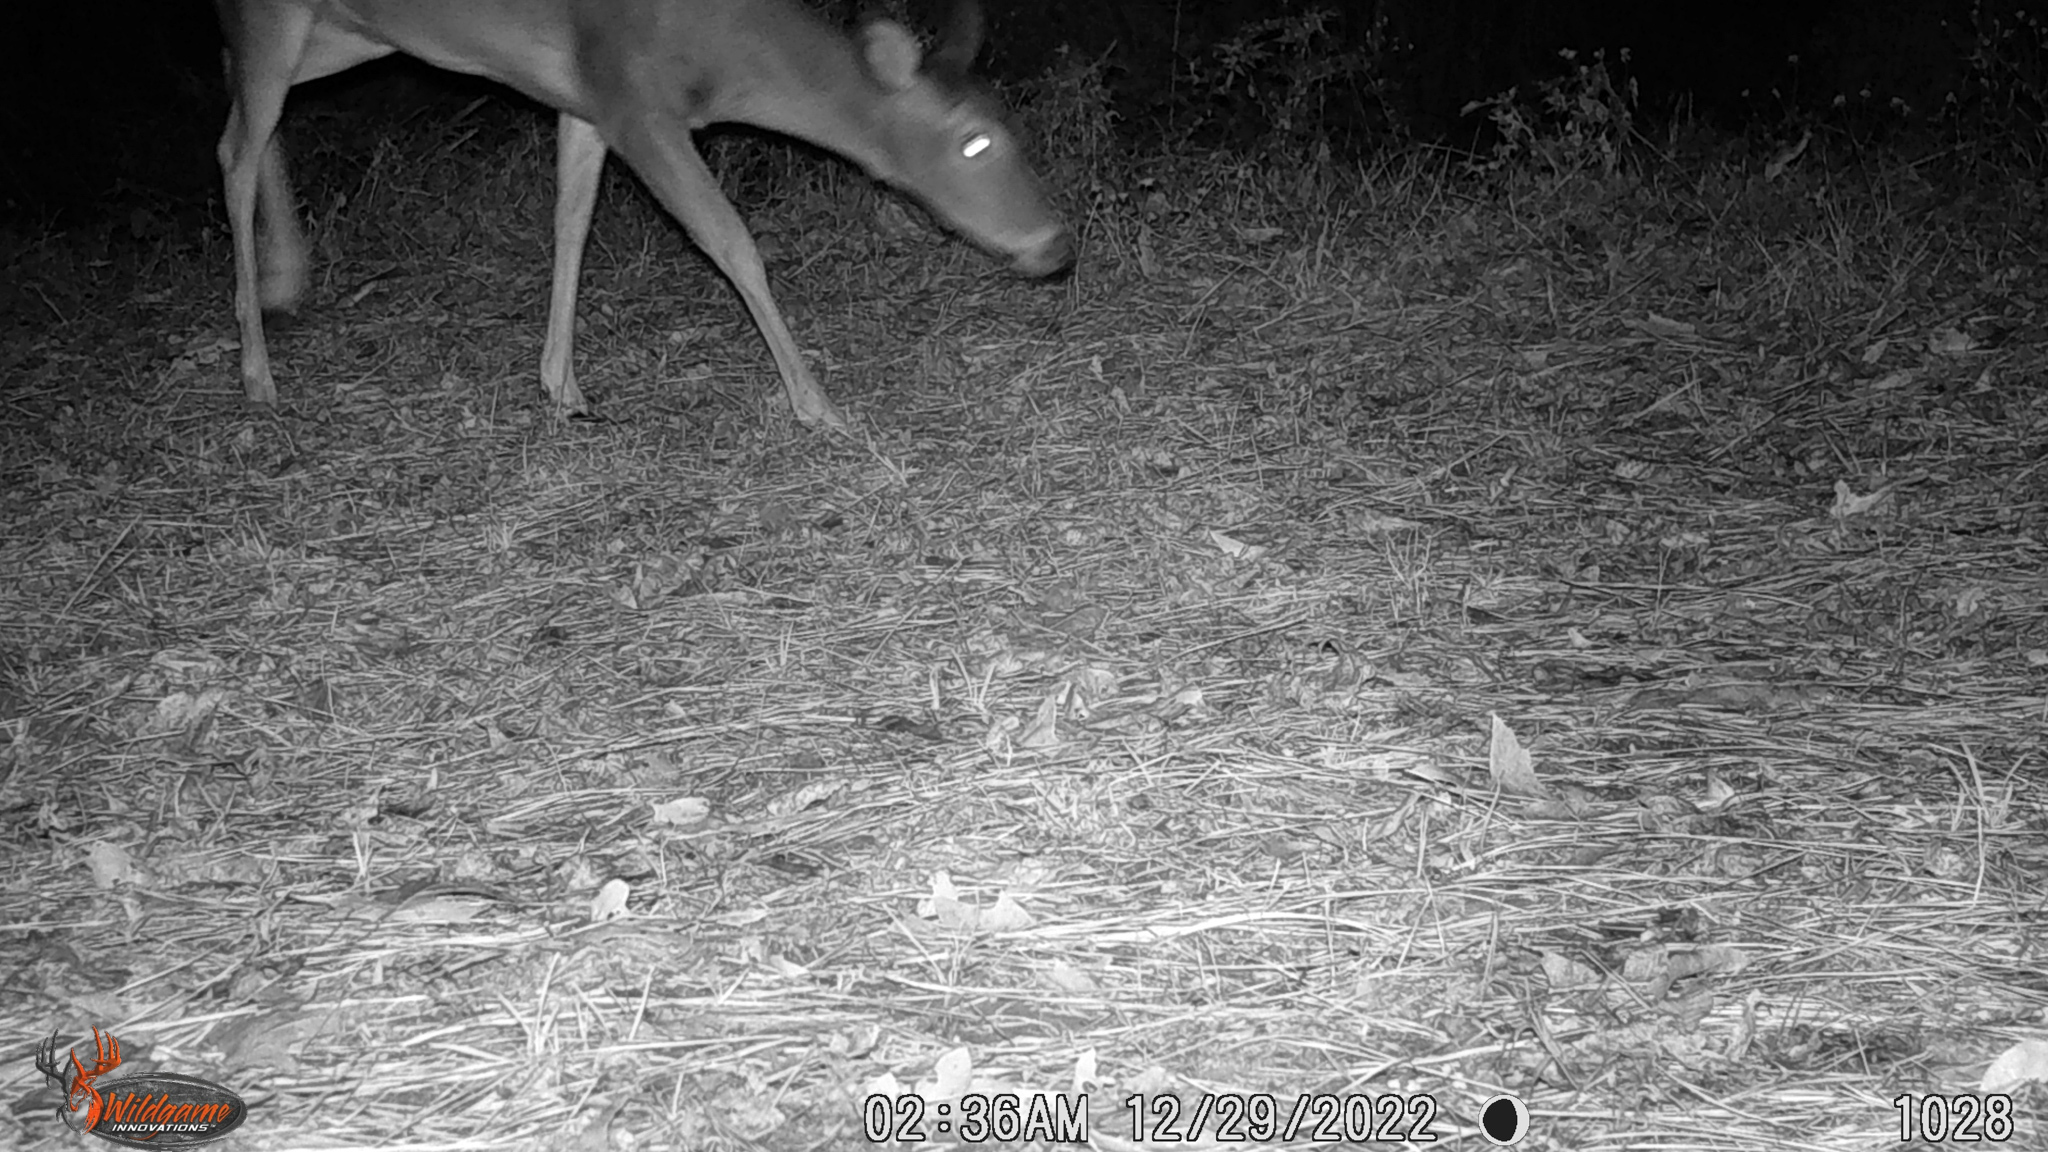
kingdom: Animalia
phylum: Chordata
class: Mammalia
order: Artiodactyla
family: Cervidae
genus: Odocoileus
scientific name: Odocoileus virginianus
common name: White-tailed deer
